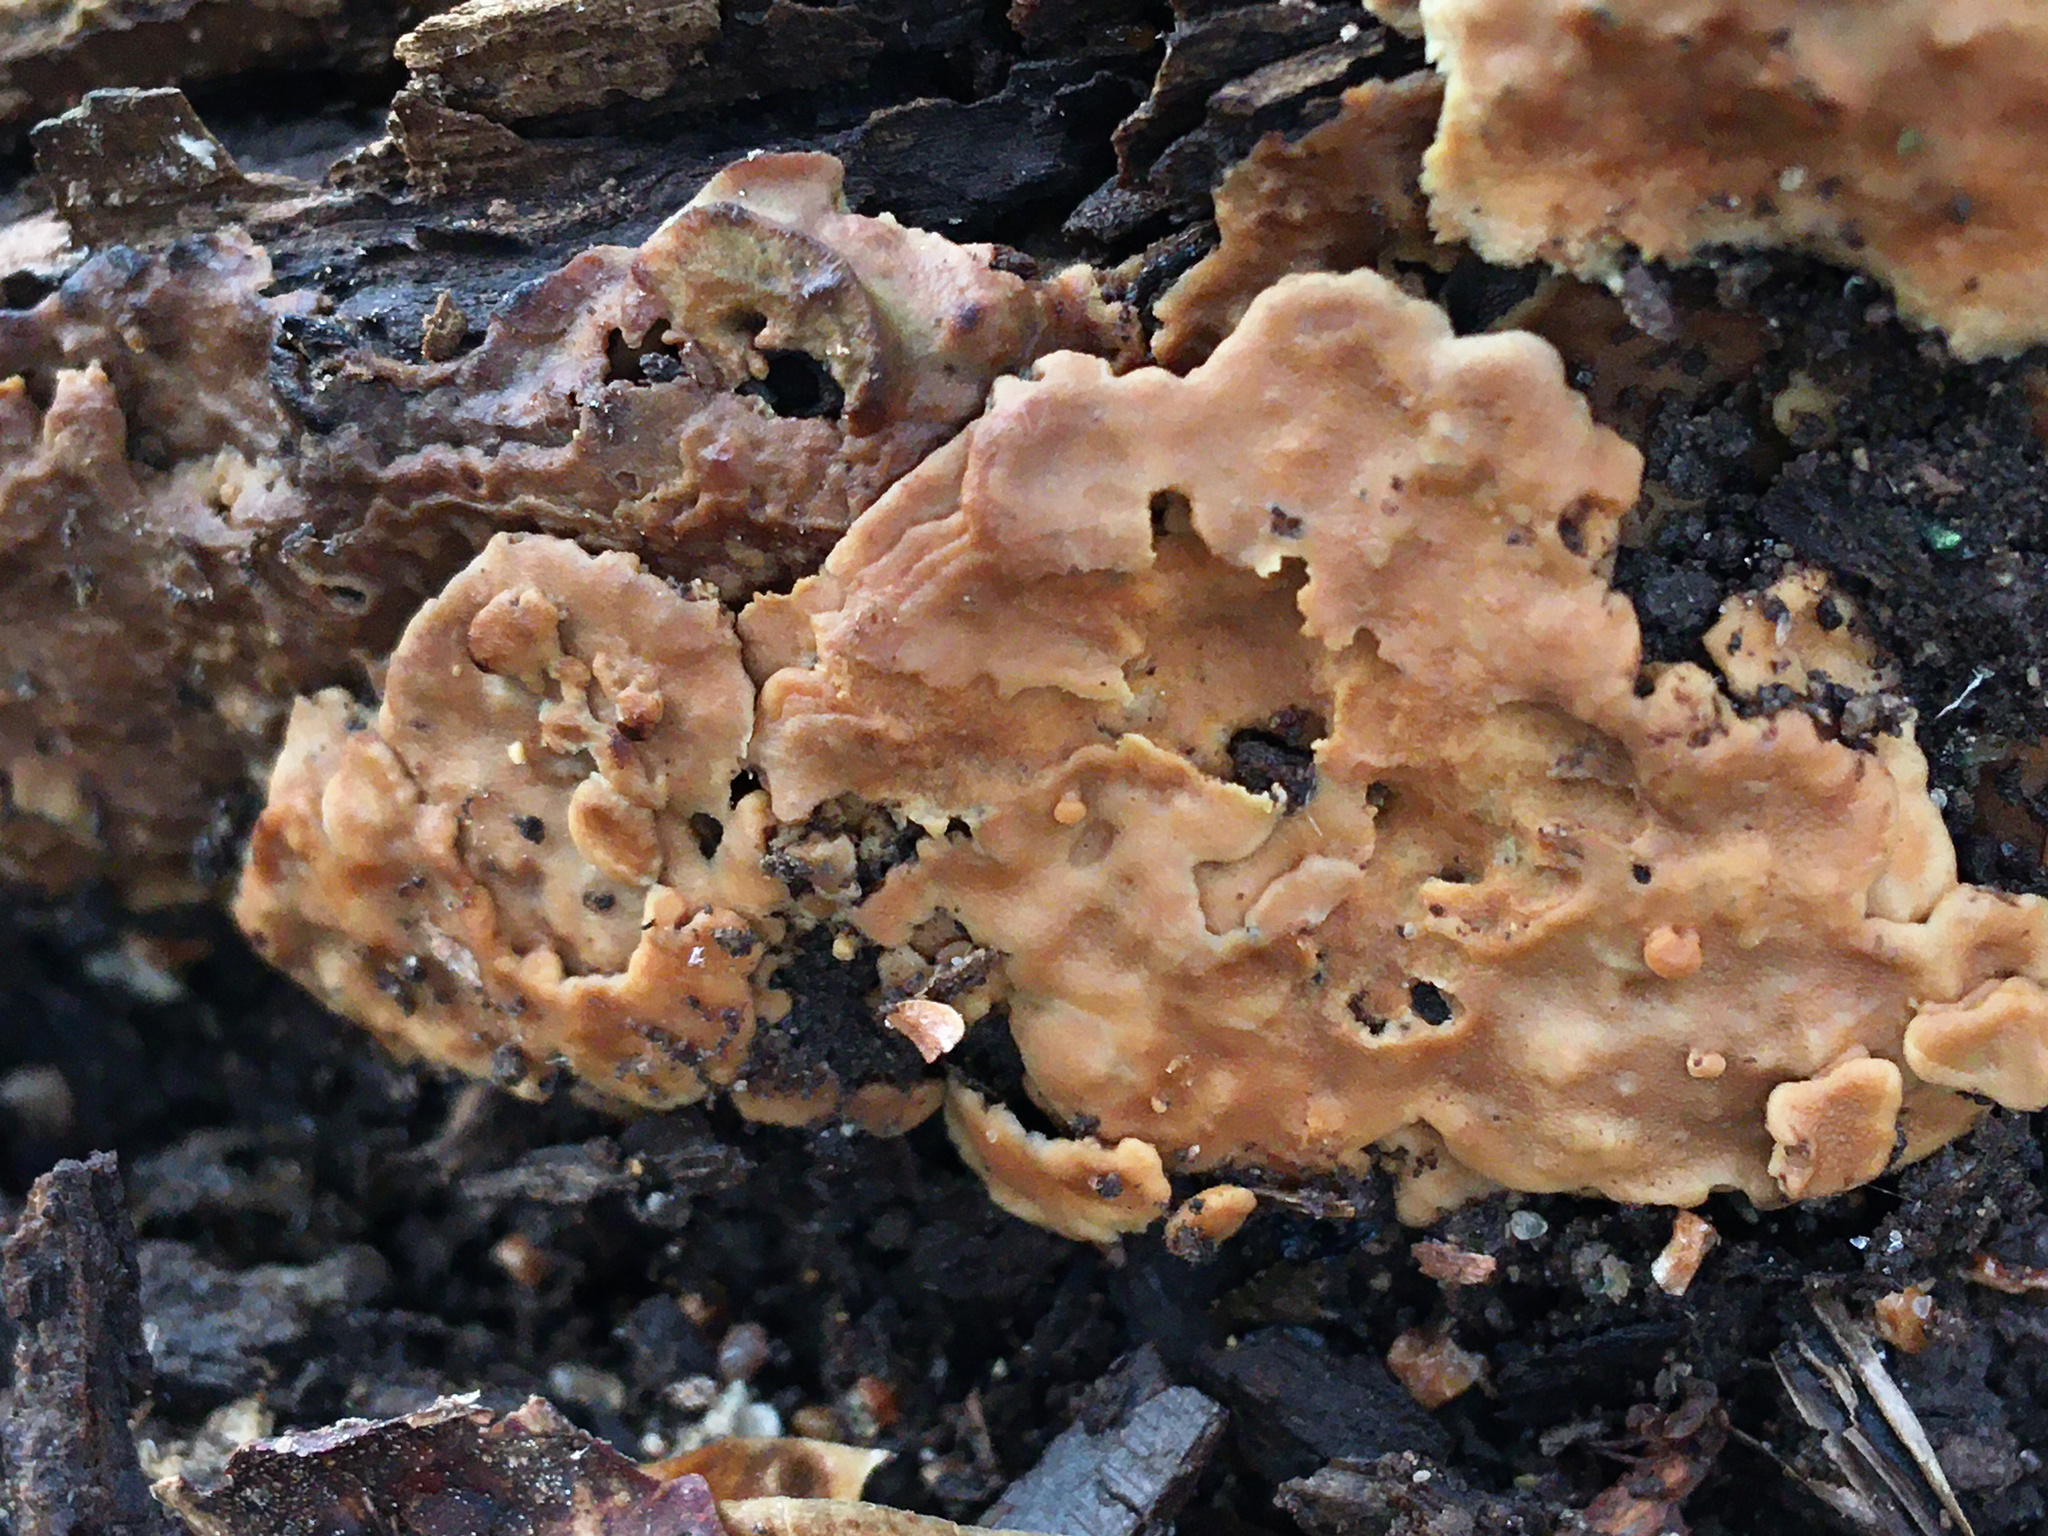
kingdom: Fungi
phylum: Basidiomycota
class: Agaricomycetes
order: Polyporales
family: Meripilaceae
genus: Rigidoporus
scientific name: Rigidoporus crocatus
